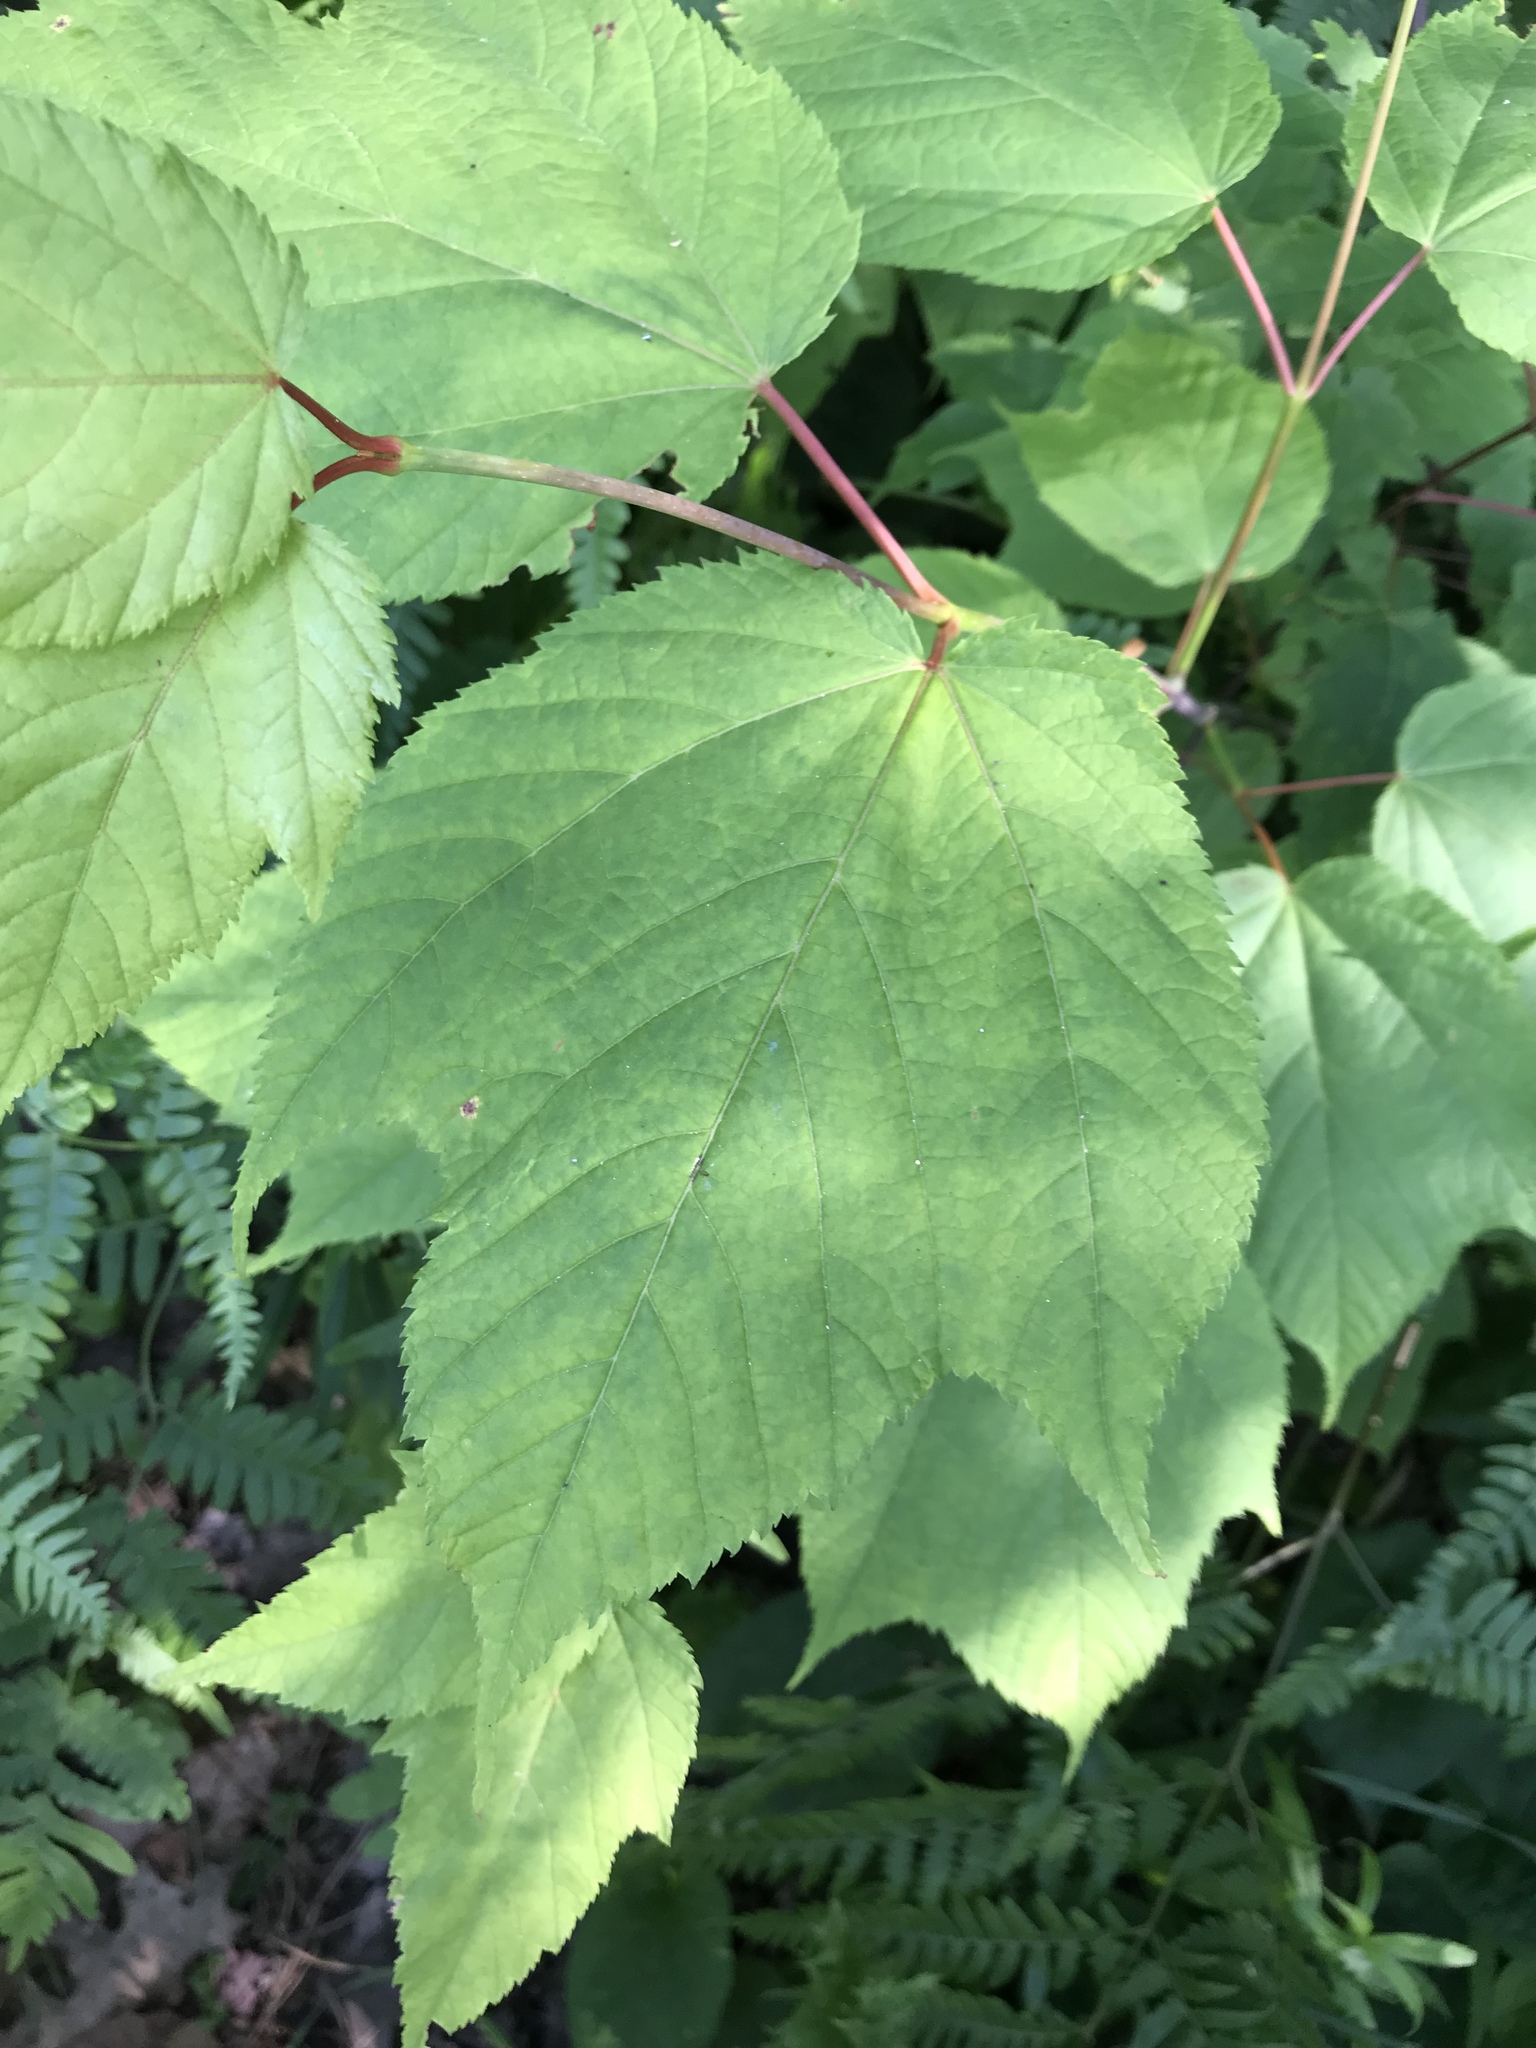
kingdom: Plantae
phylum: Tracheophyta
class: Magnoliopsida
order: Sapindales
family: Sapindaceae
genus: Acer
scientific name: Acer pensylvanicum
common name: Moosewood
